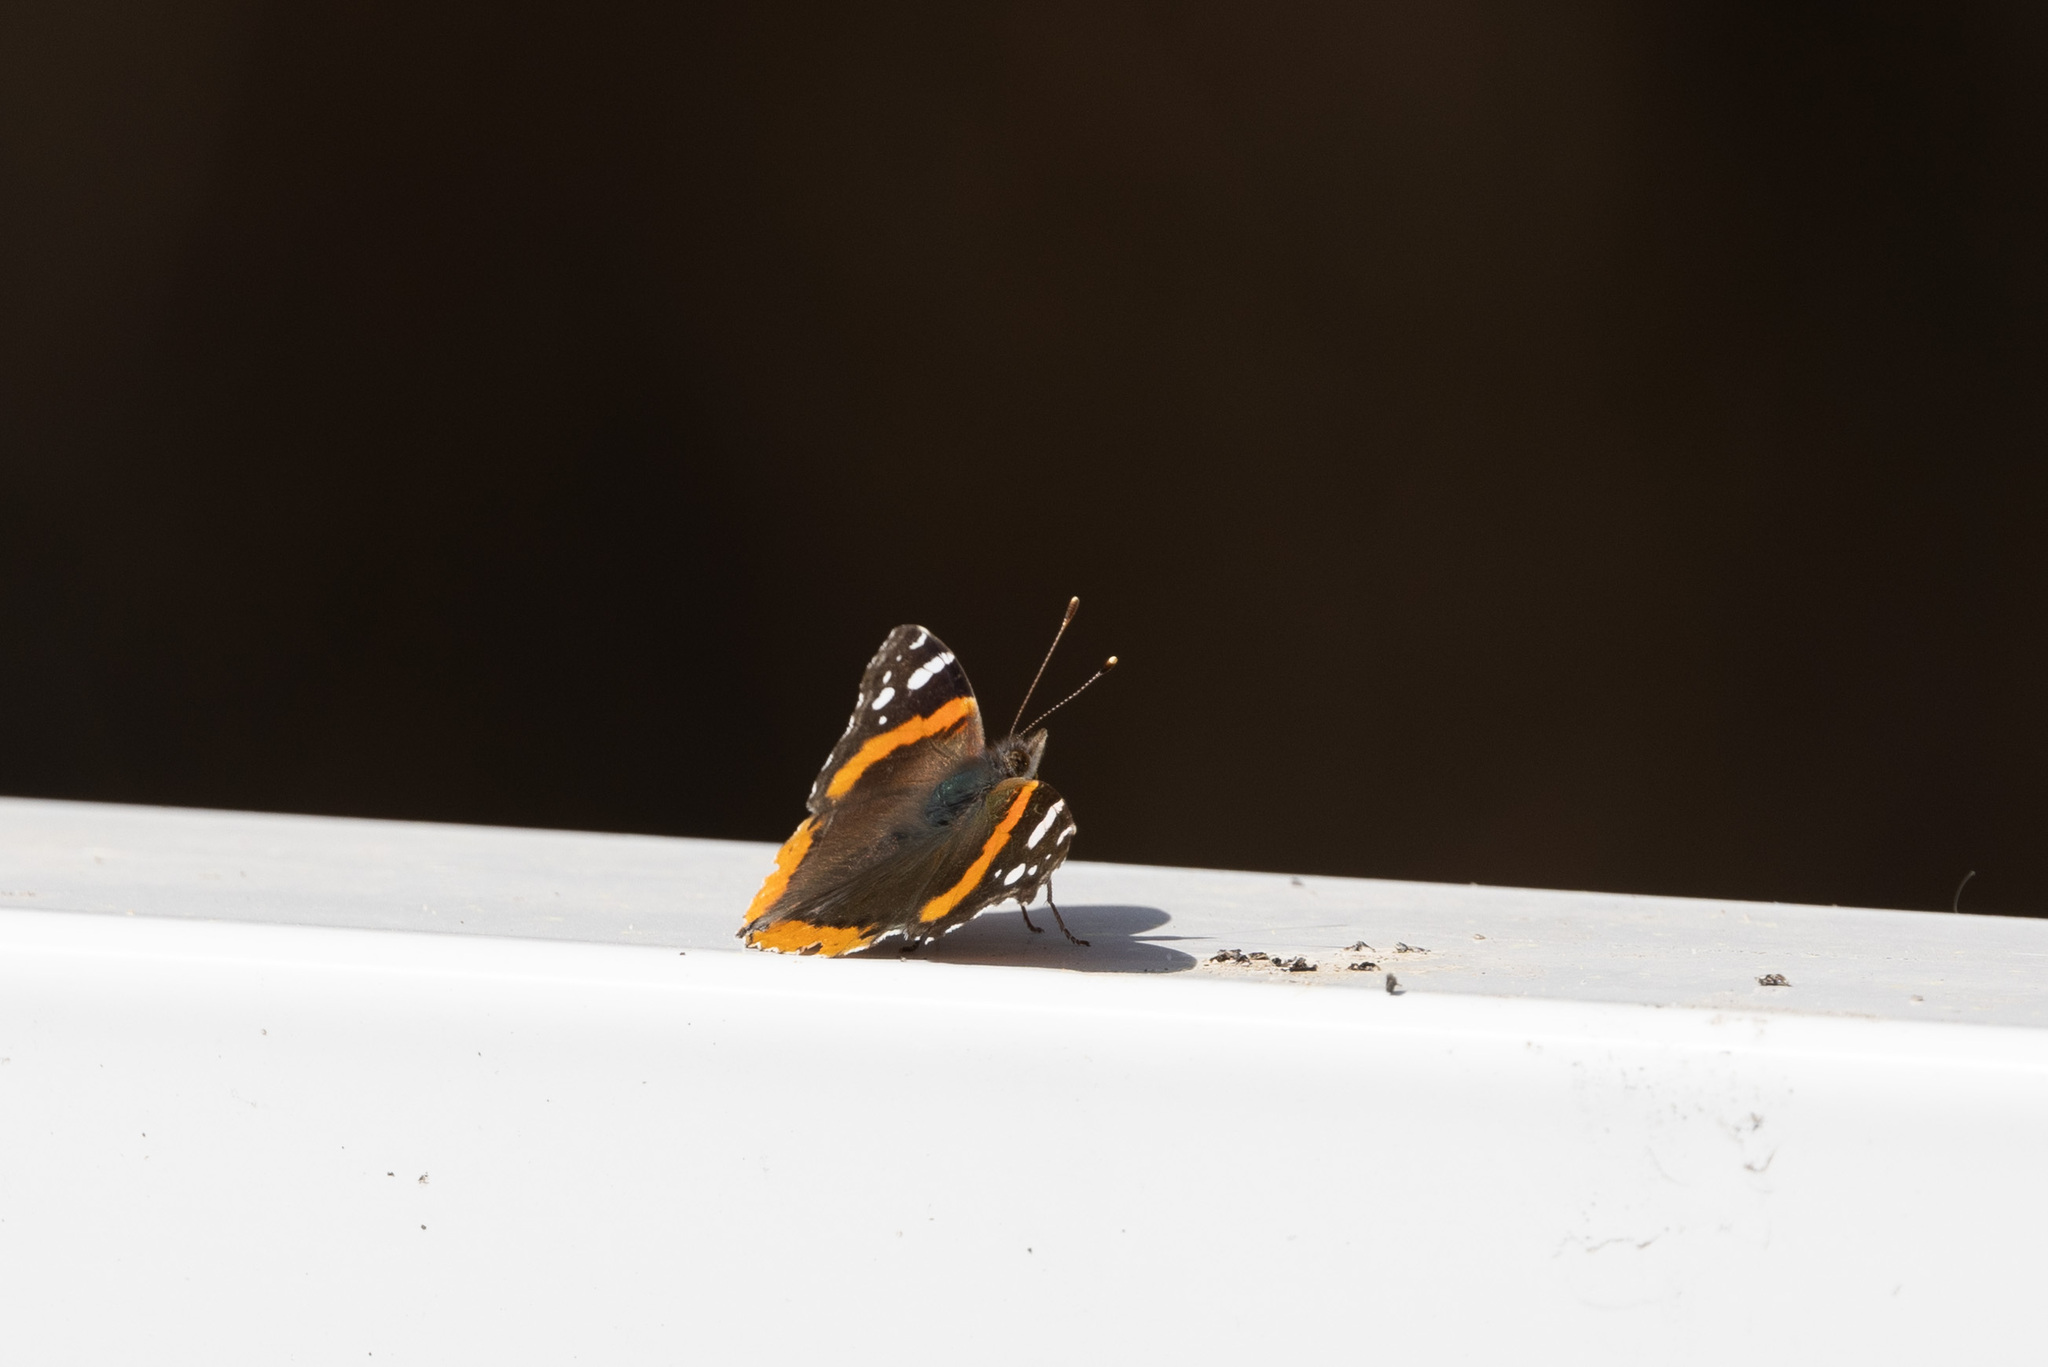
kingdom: Animalia
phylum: Arthropoda
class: Insecta
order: Lepidoptera
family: Nymphalidae
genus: Vanessa
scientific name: Vanessa atalanta
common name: Red admiral
